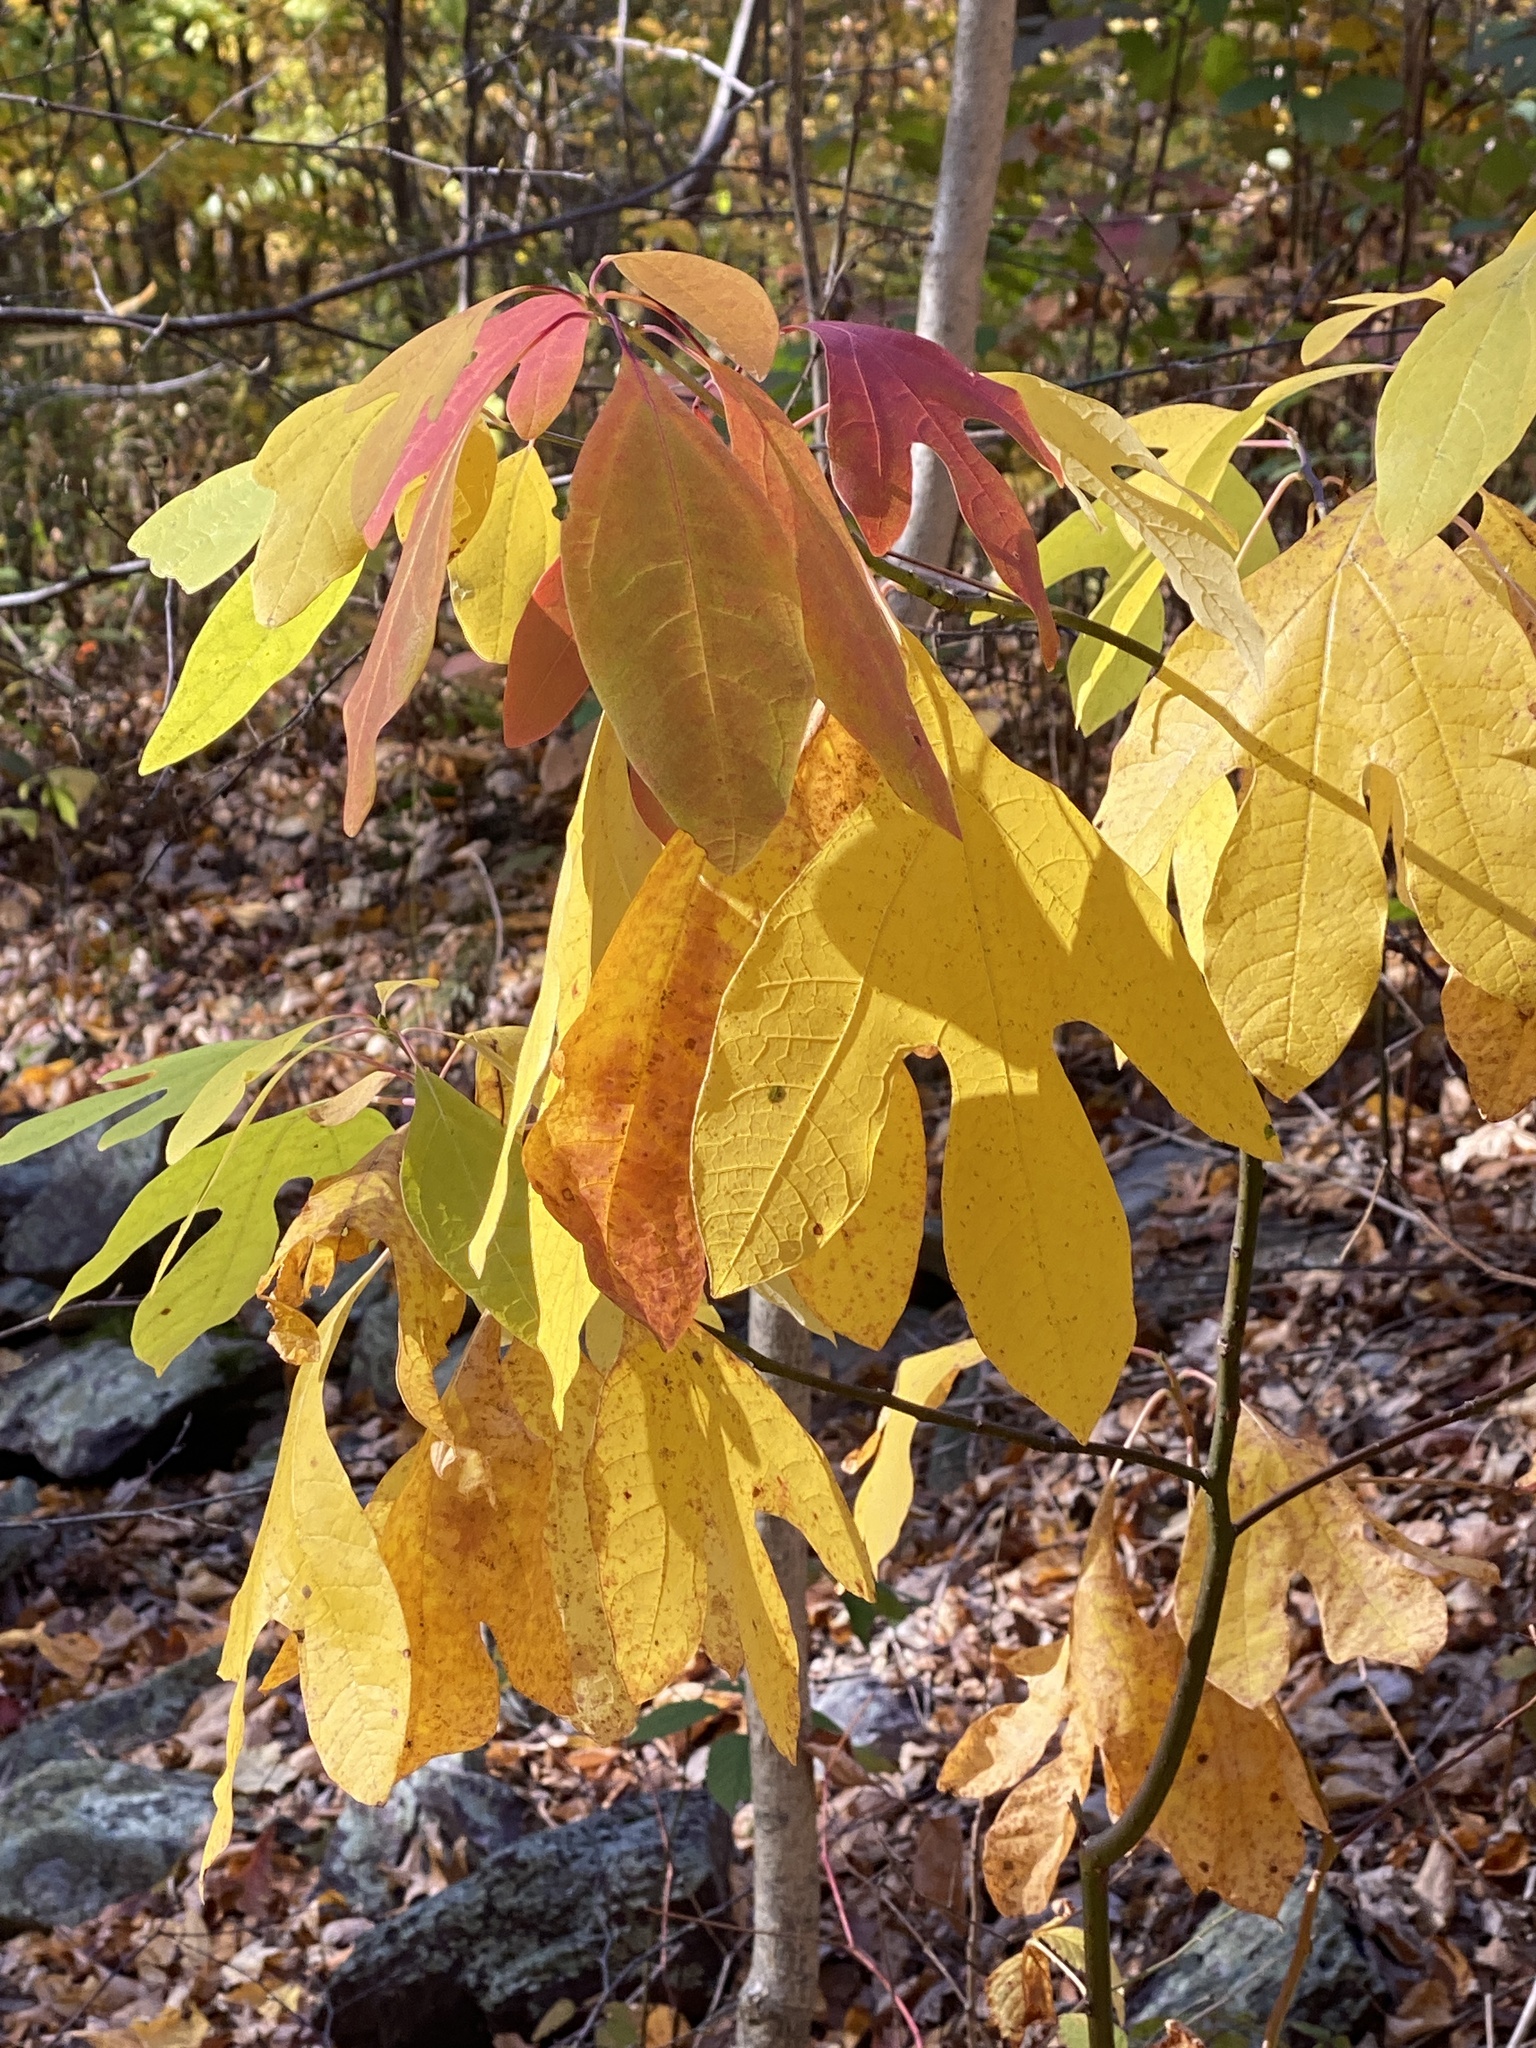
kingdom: Plantae
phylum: Tracheophyta
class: Magnoliopsida
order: Laurales
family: Lauraceae
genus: Sassafras
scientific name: Sassafras albidum
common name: Sassafras
